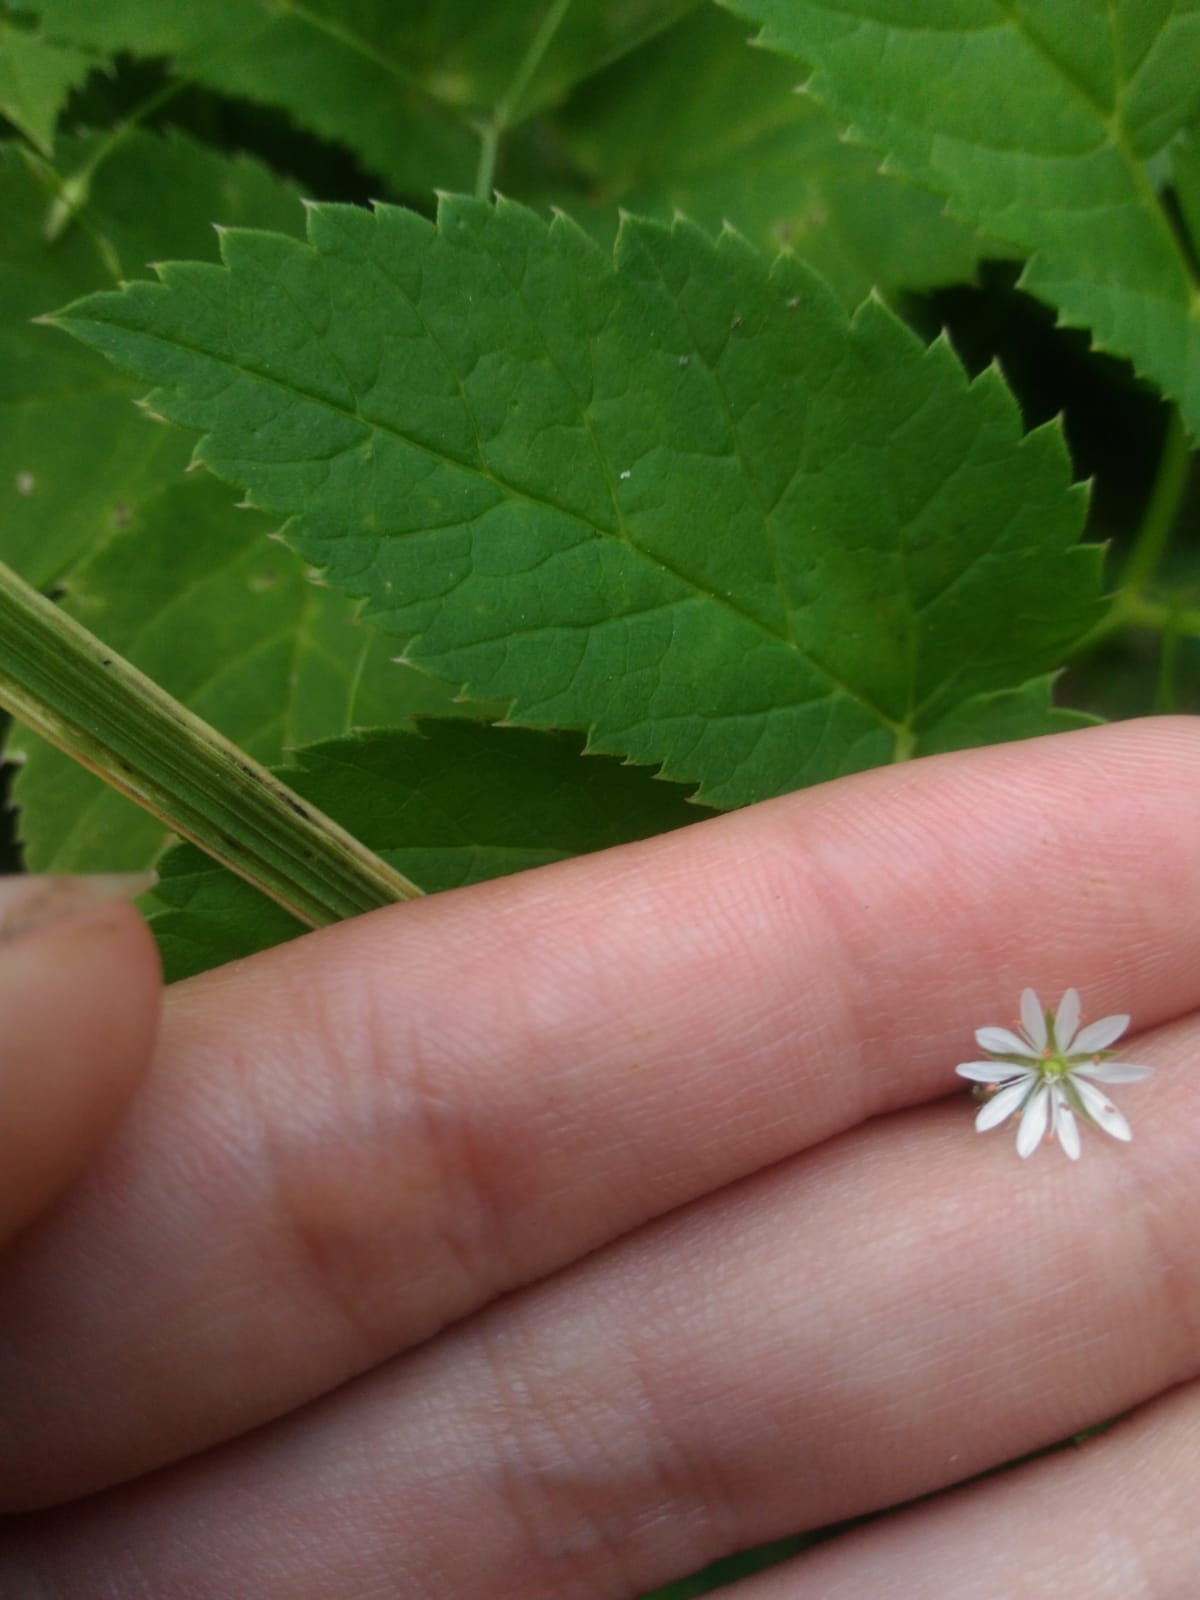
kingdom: Plantae
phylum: Tracheophyta
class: Magnoliopsida
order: Caryophyllales
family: Caryophyllaceae
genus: Stellaria
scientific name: Stellaria graminea
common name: Grass-like starwort
